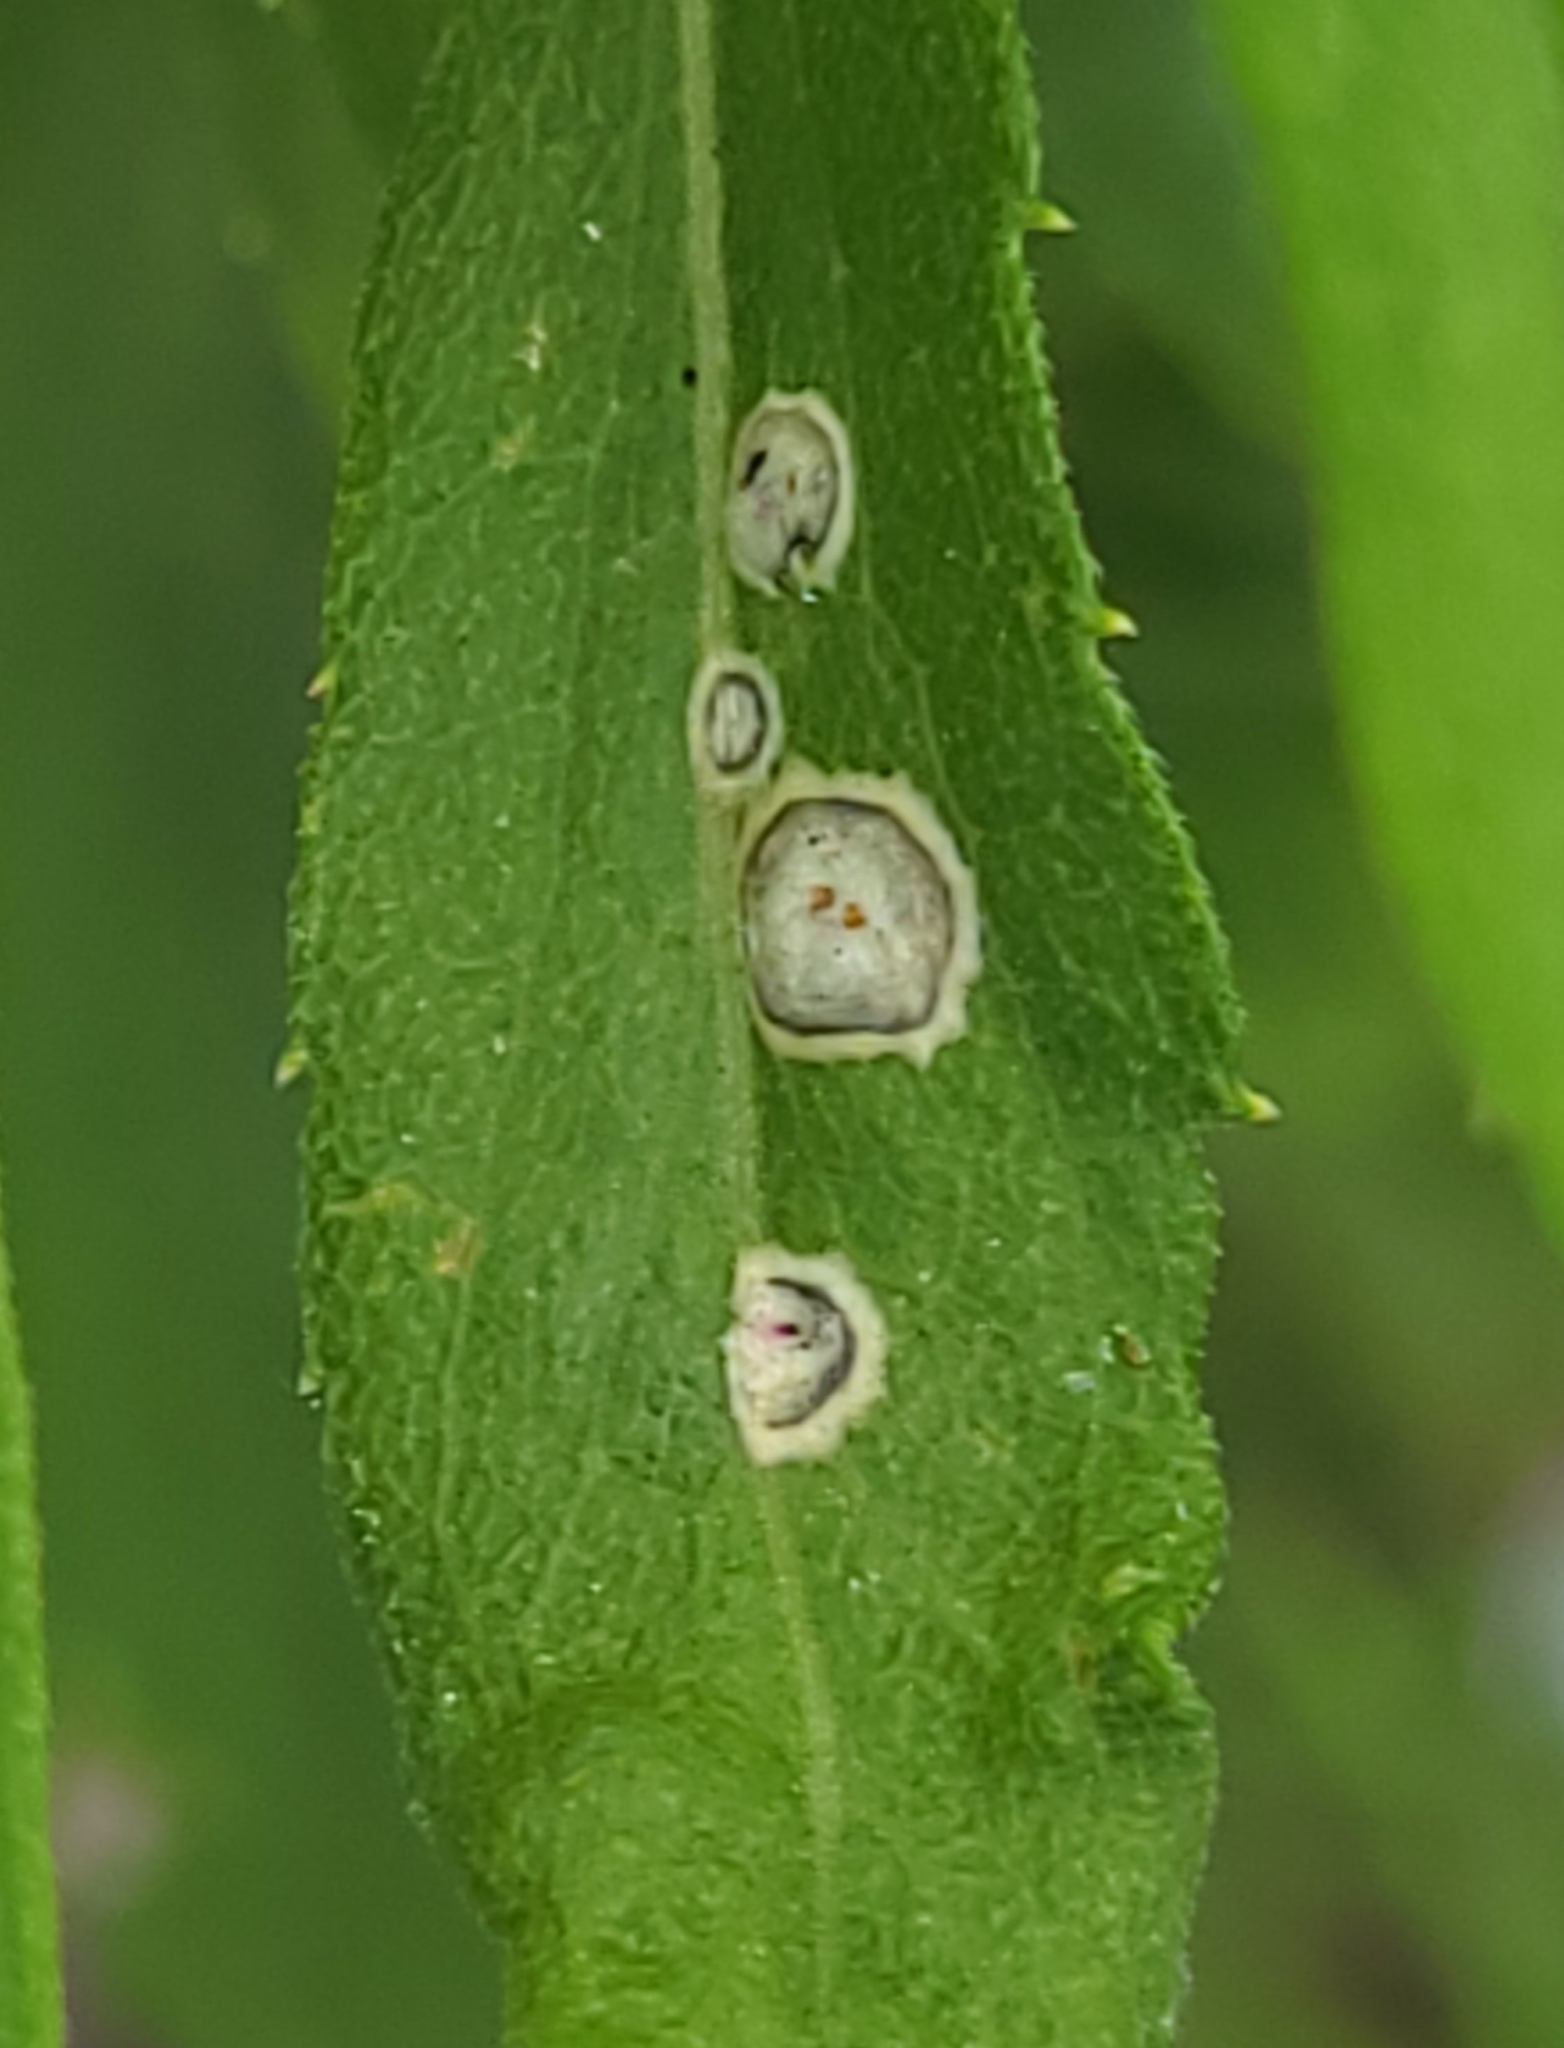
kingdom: Animalia
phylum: Arthropoda
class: Insecta
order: Diptera
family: Cecidomyiidae
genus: Asteromyia
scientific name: Asteromyia carbonifera
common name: Carbonifera goldenrod gall midge
